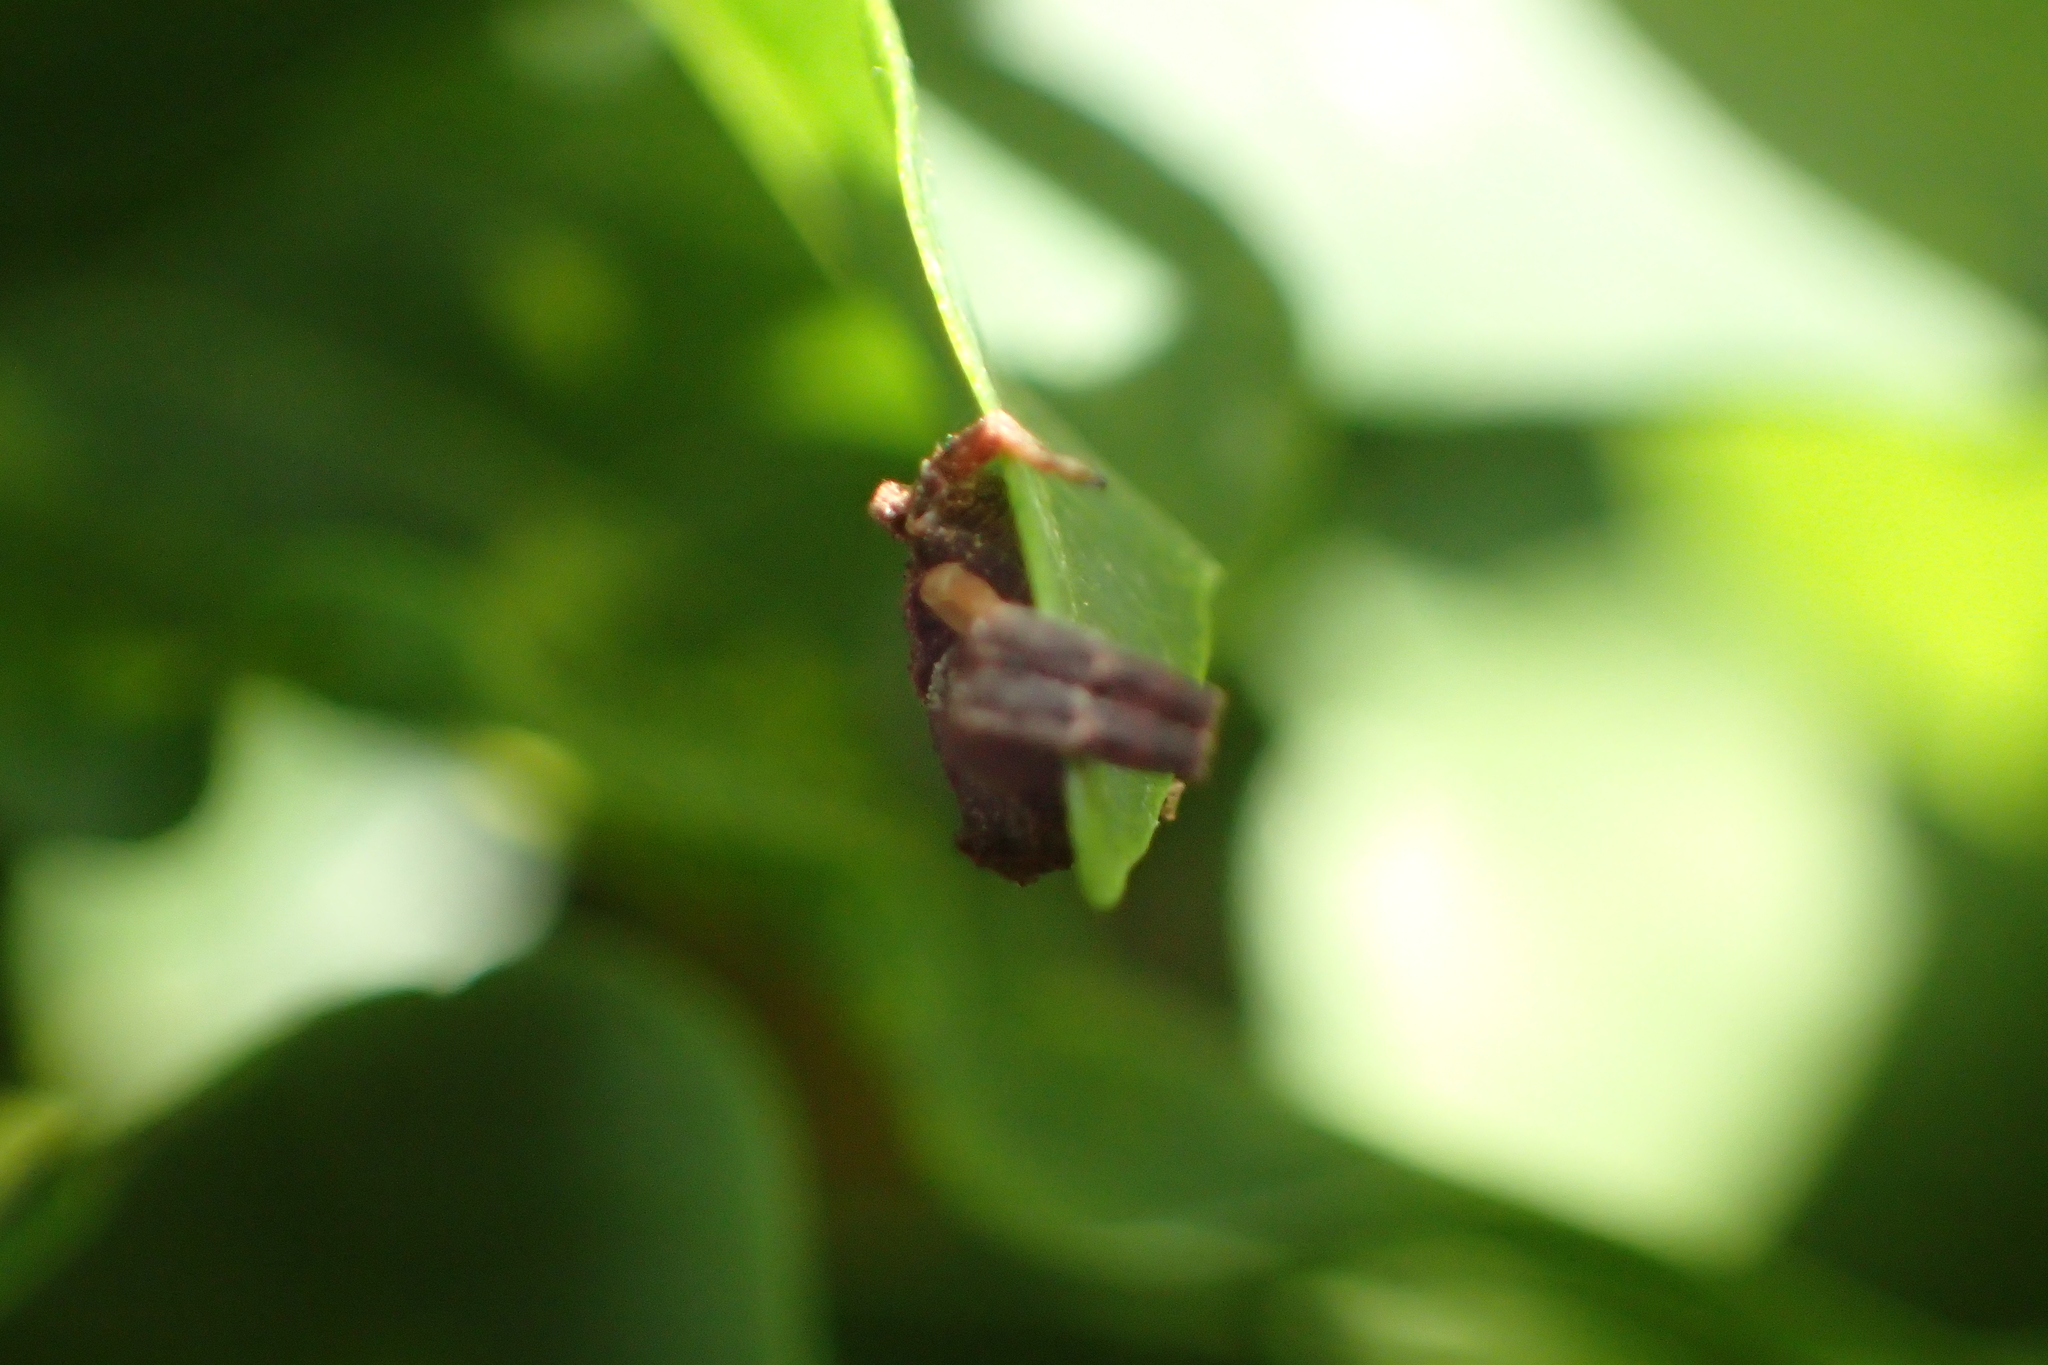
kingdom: Animalia
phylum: Arthropoda
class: Arachnida
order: Araneae
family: Thomisidae
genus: Thomisus
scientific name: Thomisus scrupeus
